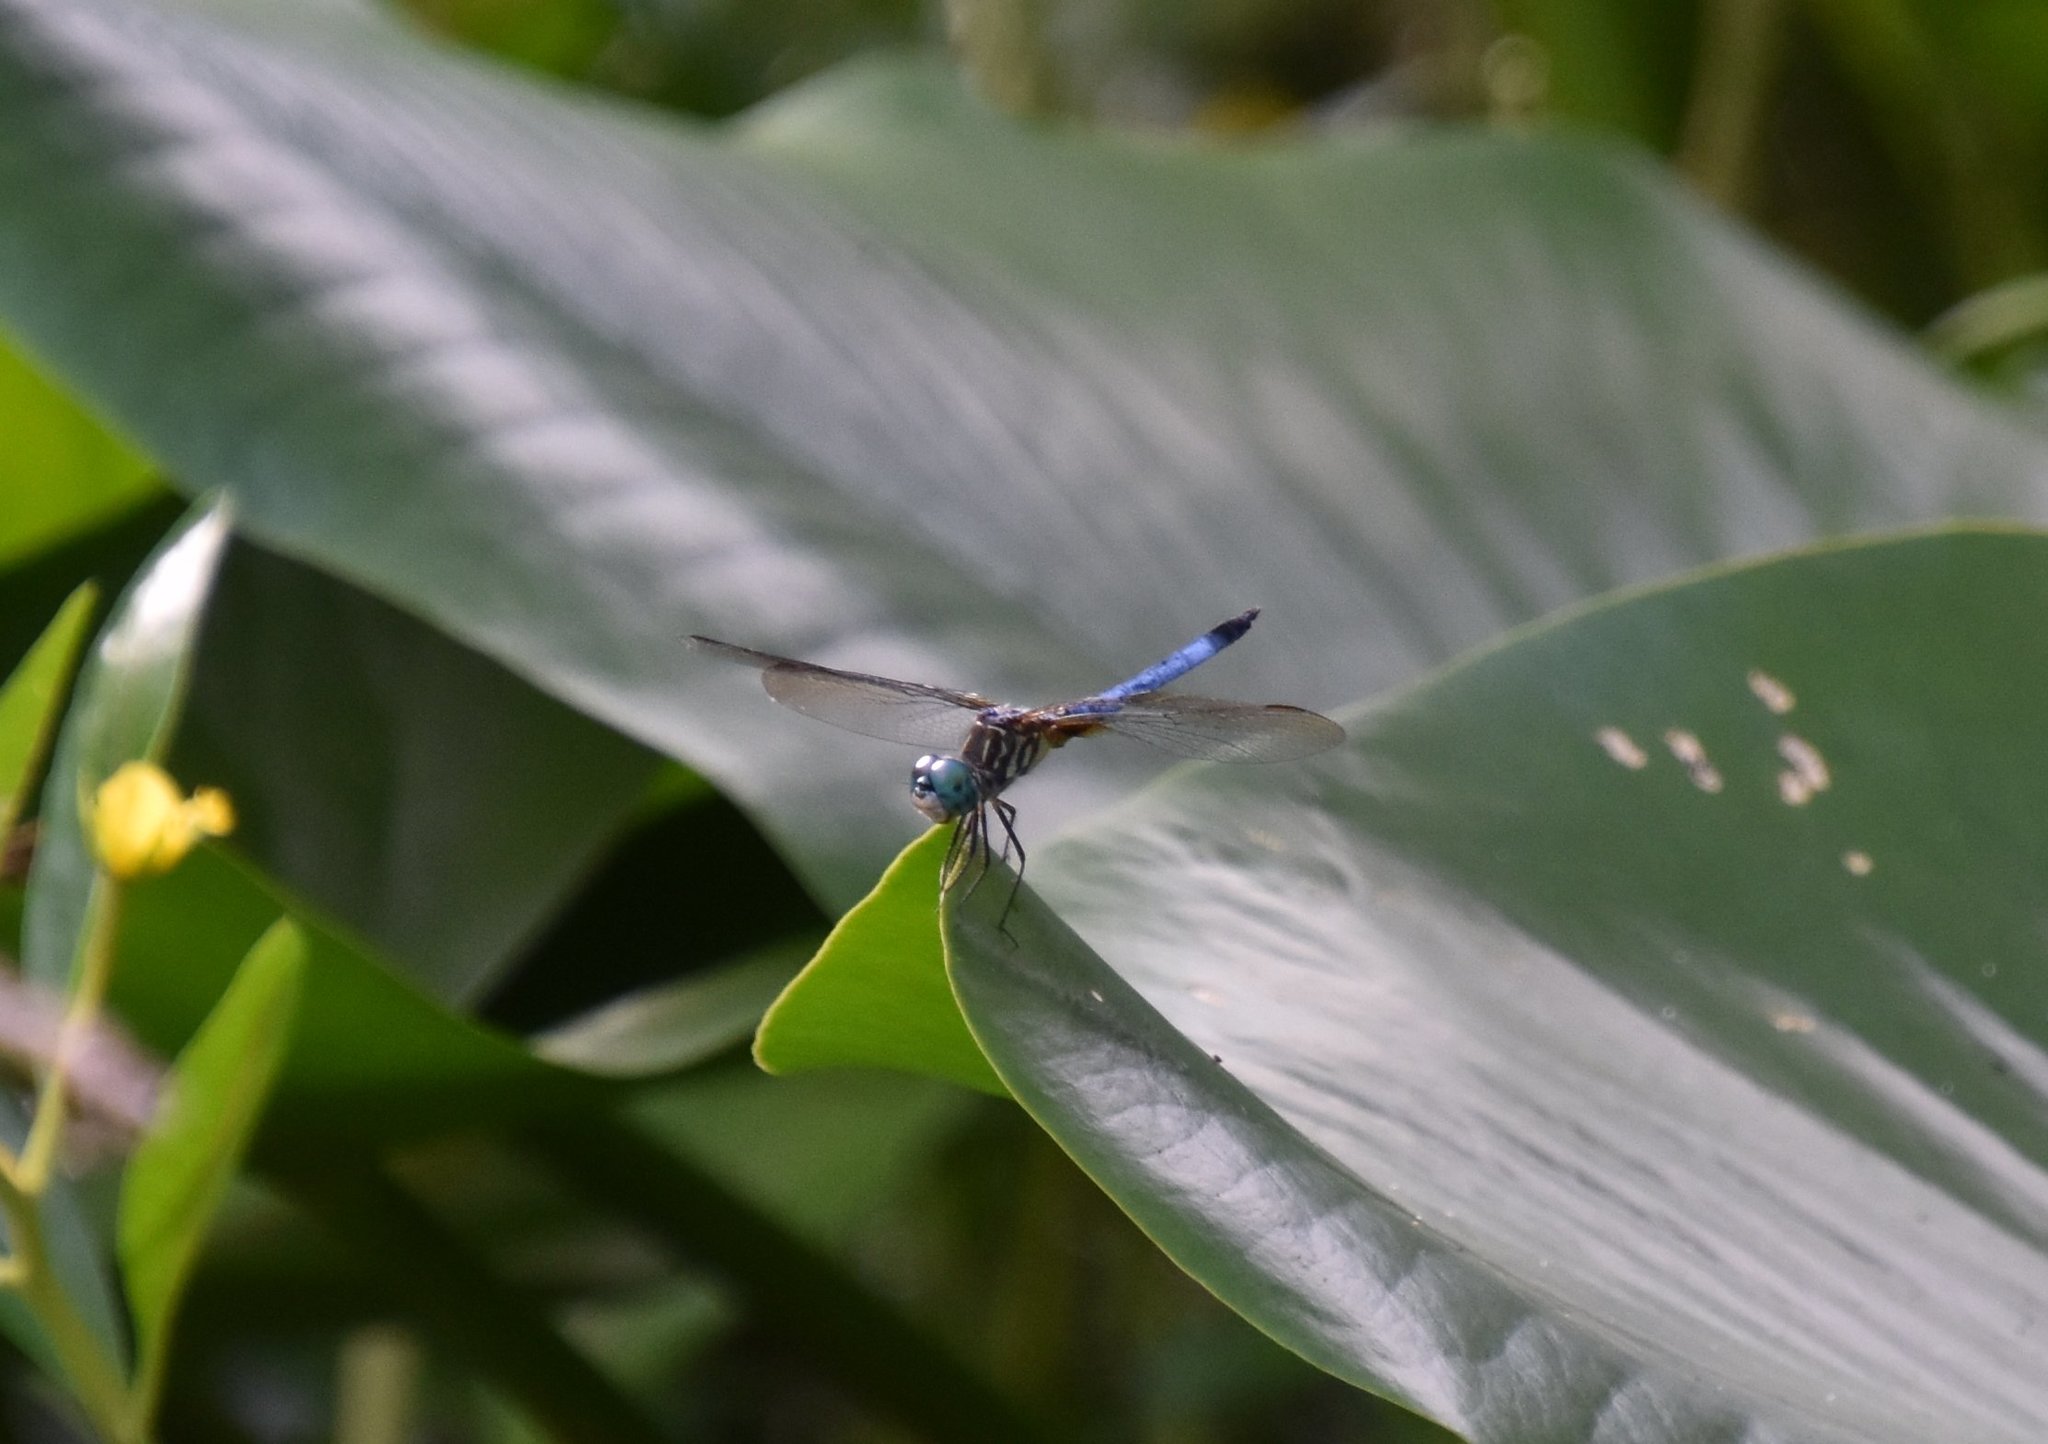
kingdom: Animalia
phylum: Arthropoda
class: Insecta
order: Odonata
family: Libellulidae
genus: Pachydiplax
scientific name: Pachydiplax longipennis
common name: Blue dasher
